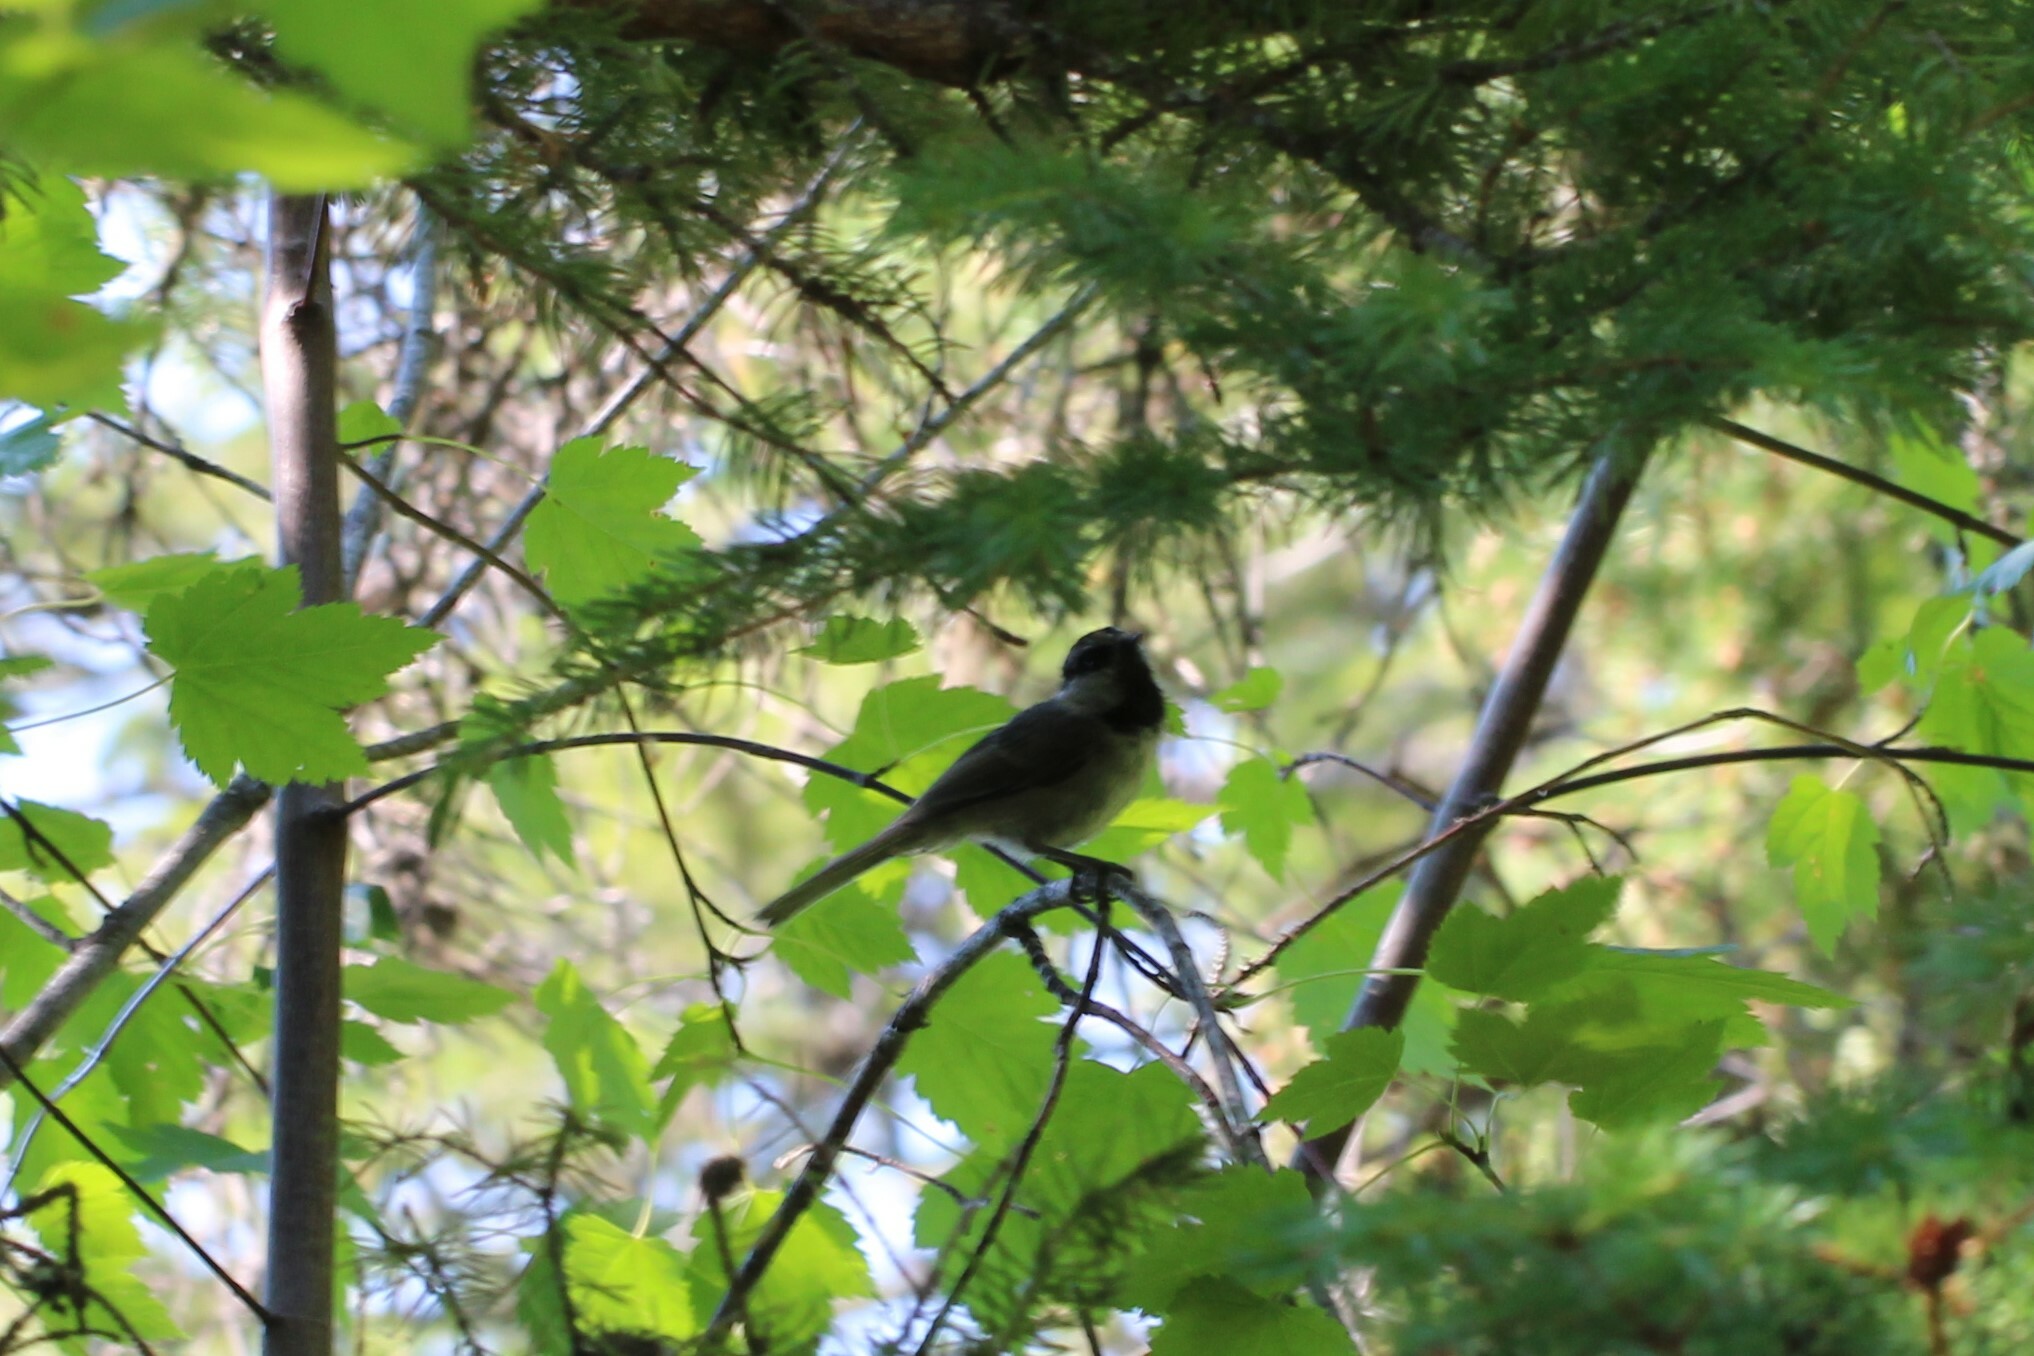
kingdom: Animalia
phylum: Chordata
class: Aves
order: Passeriformes
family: Paridae
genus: Poecile
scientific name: Poecile gambeli
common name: Mountain chickadee
